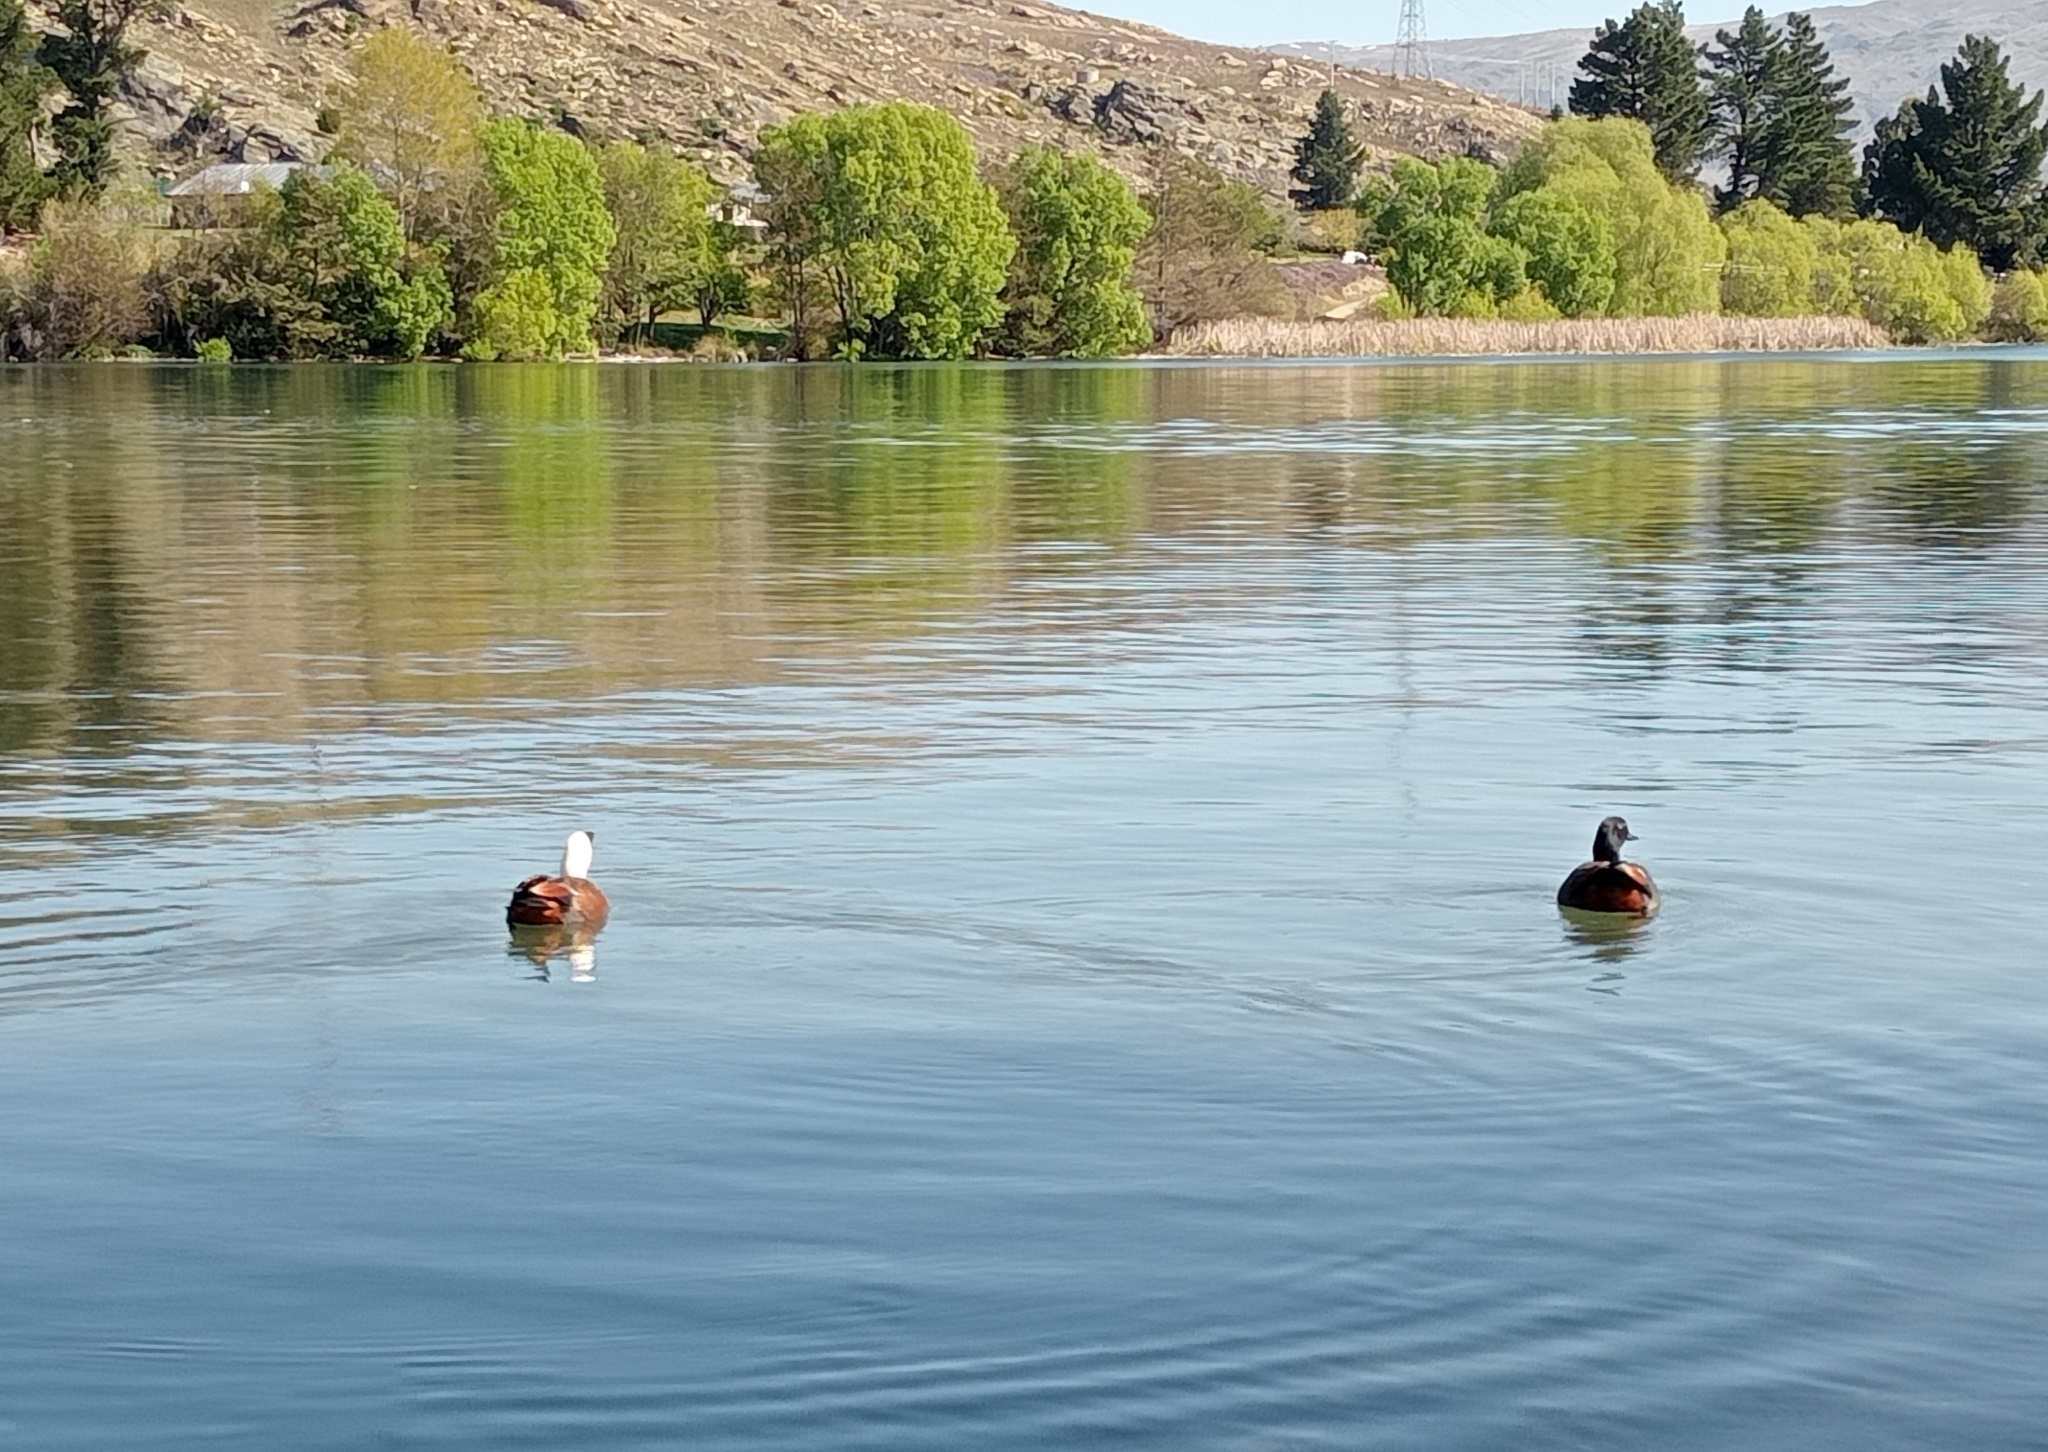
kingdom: Animalia
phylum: Chordata
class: Aves
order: Anseriformes
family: Anatidae
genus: Tadorna
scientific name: Tadorna variegata
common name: Paradise shelduck
